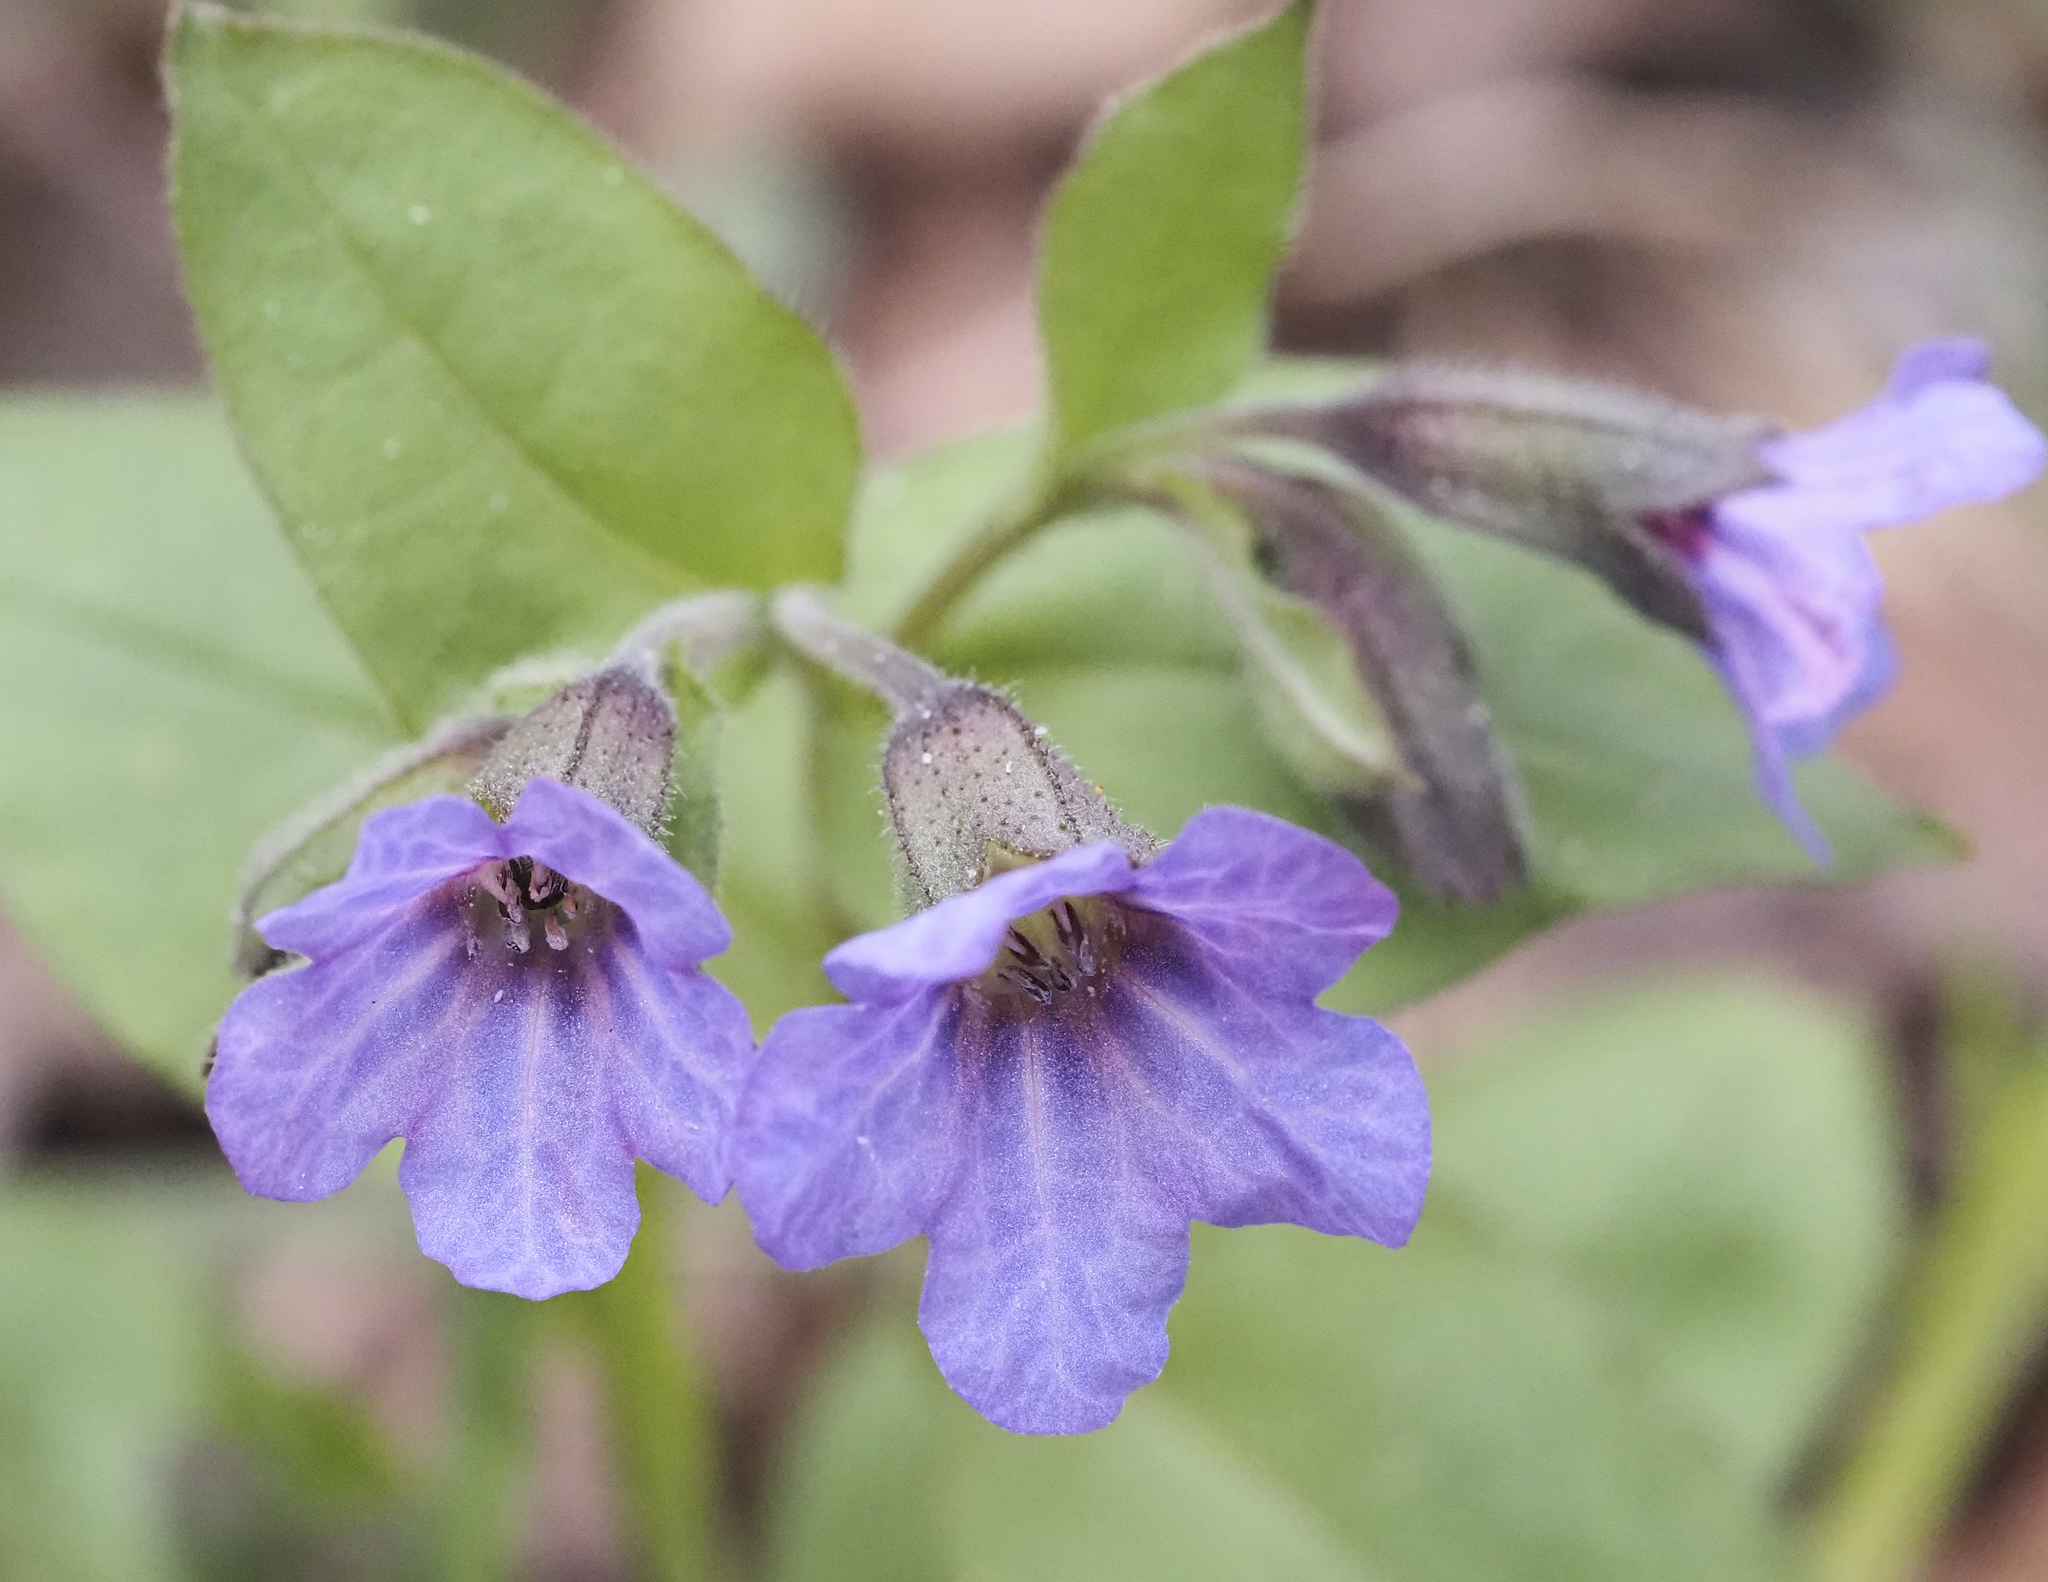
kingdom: Plantae
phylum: Tracheophyta
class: Magnoliopsida
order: Boraginales
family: Boraginaceae
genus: Pulmonaria
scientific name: Pulmonaria obscura
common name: Suffolk lungwort
